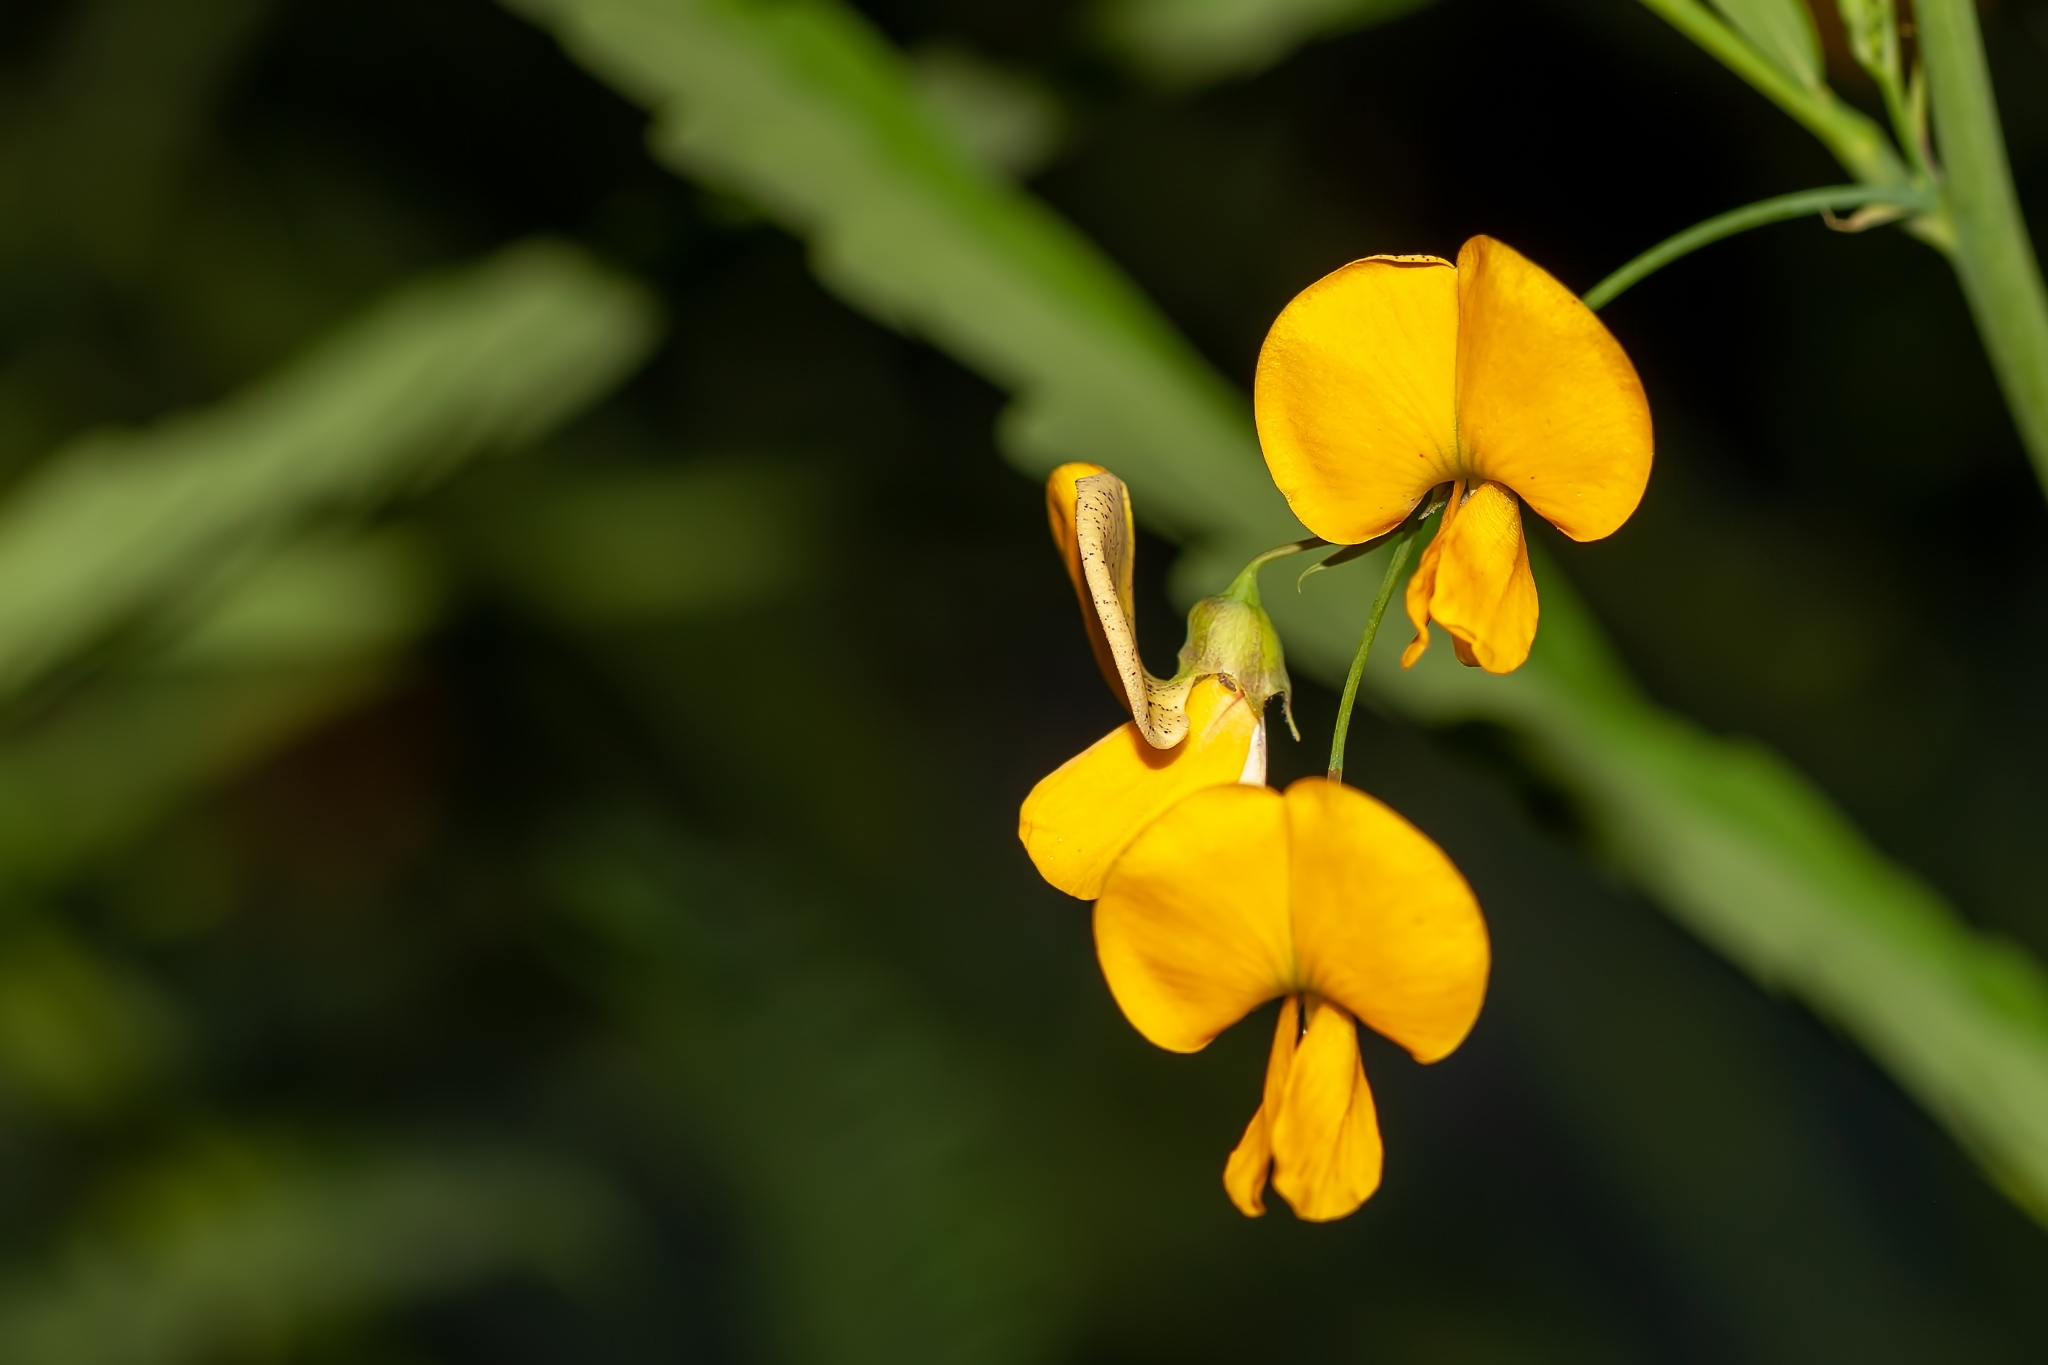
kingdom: Plantae
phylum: Tracheophyta
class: Magnoliopsida
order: Fabales
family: Fabaceae
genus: Sesbania
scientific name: Sesbania herbacea
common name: Bigpod sesbania
